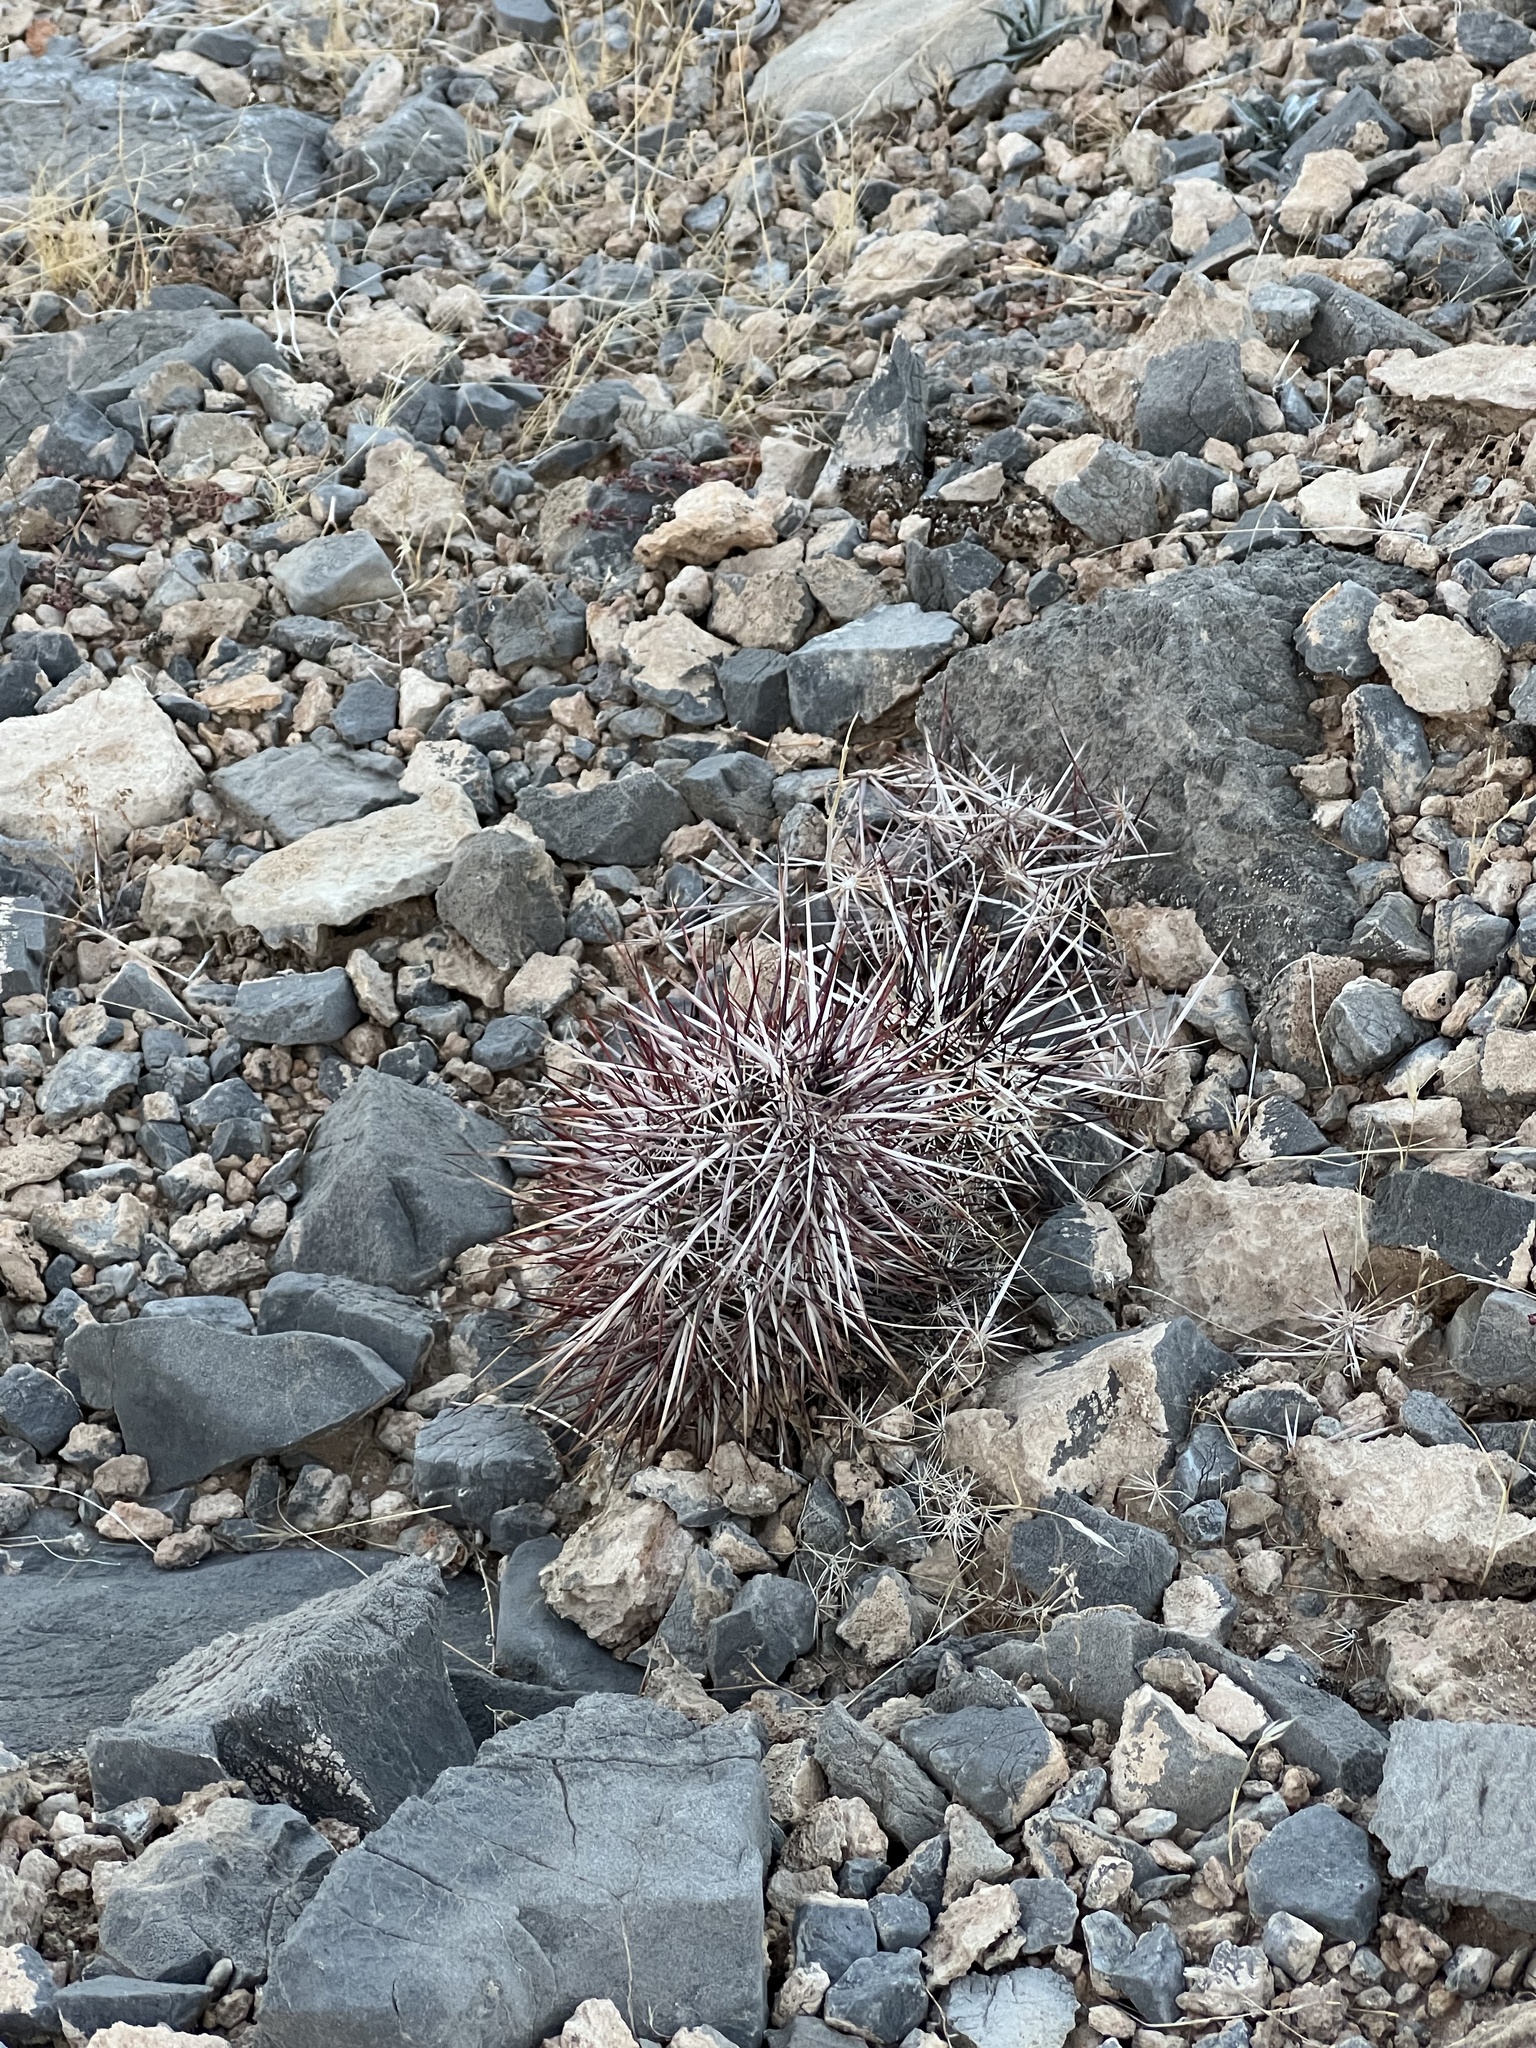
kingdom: Plantae
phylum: Tracheophyta
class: Magnoliopsida
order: Caryophyllales
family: Cactaceae
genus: Echinocereus
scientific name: Echinocereus engelmannii
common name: Engelmann's hedgehog cactus
